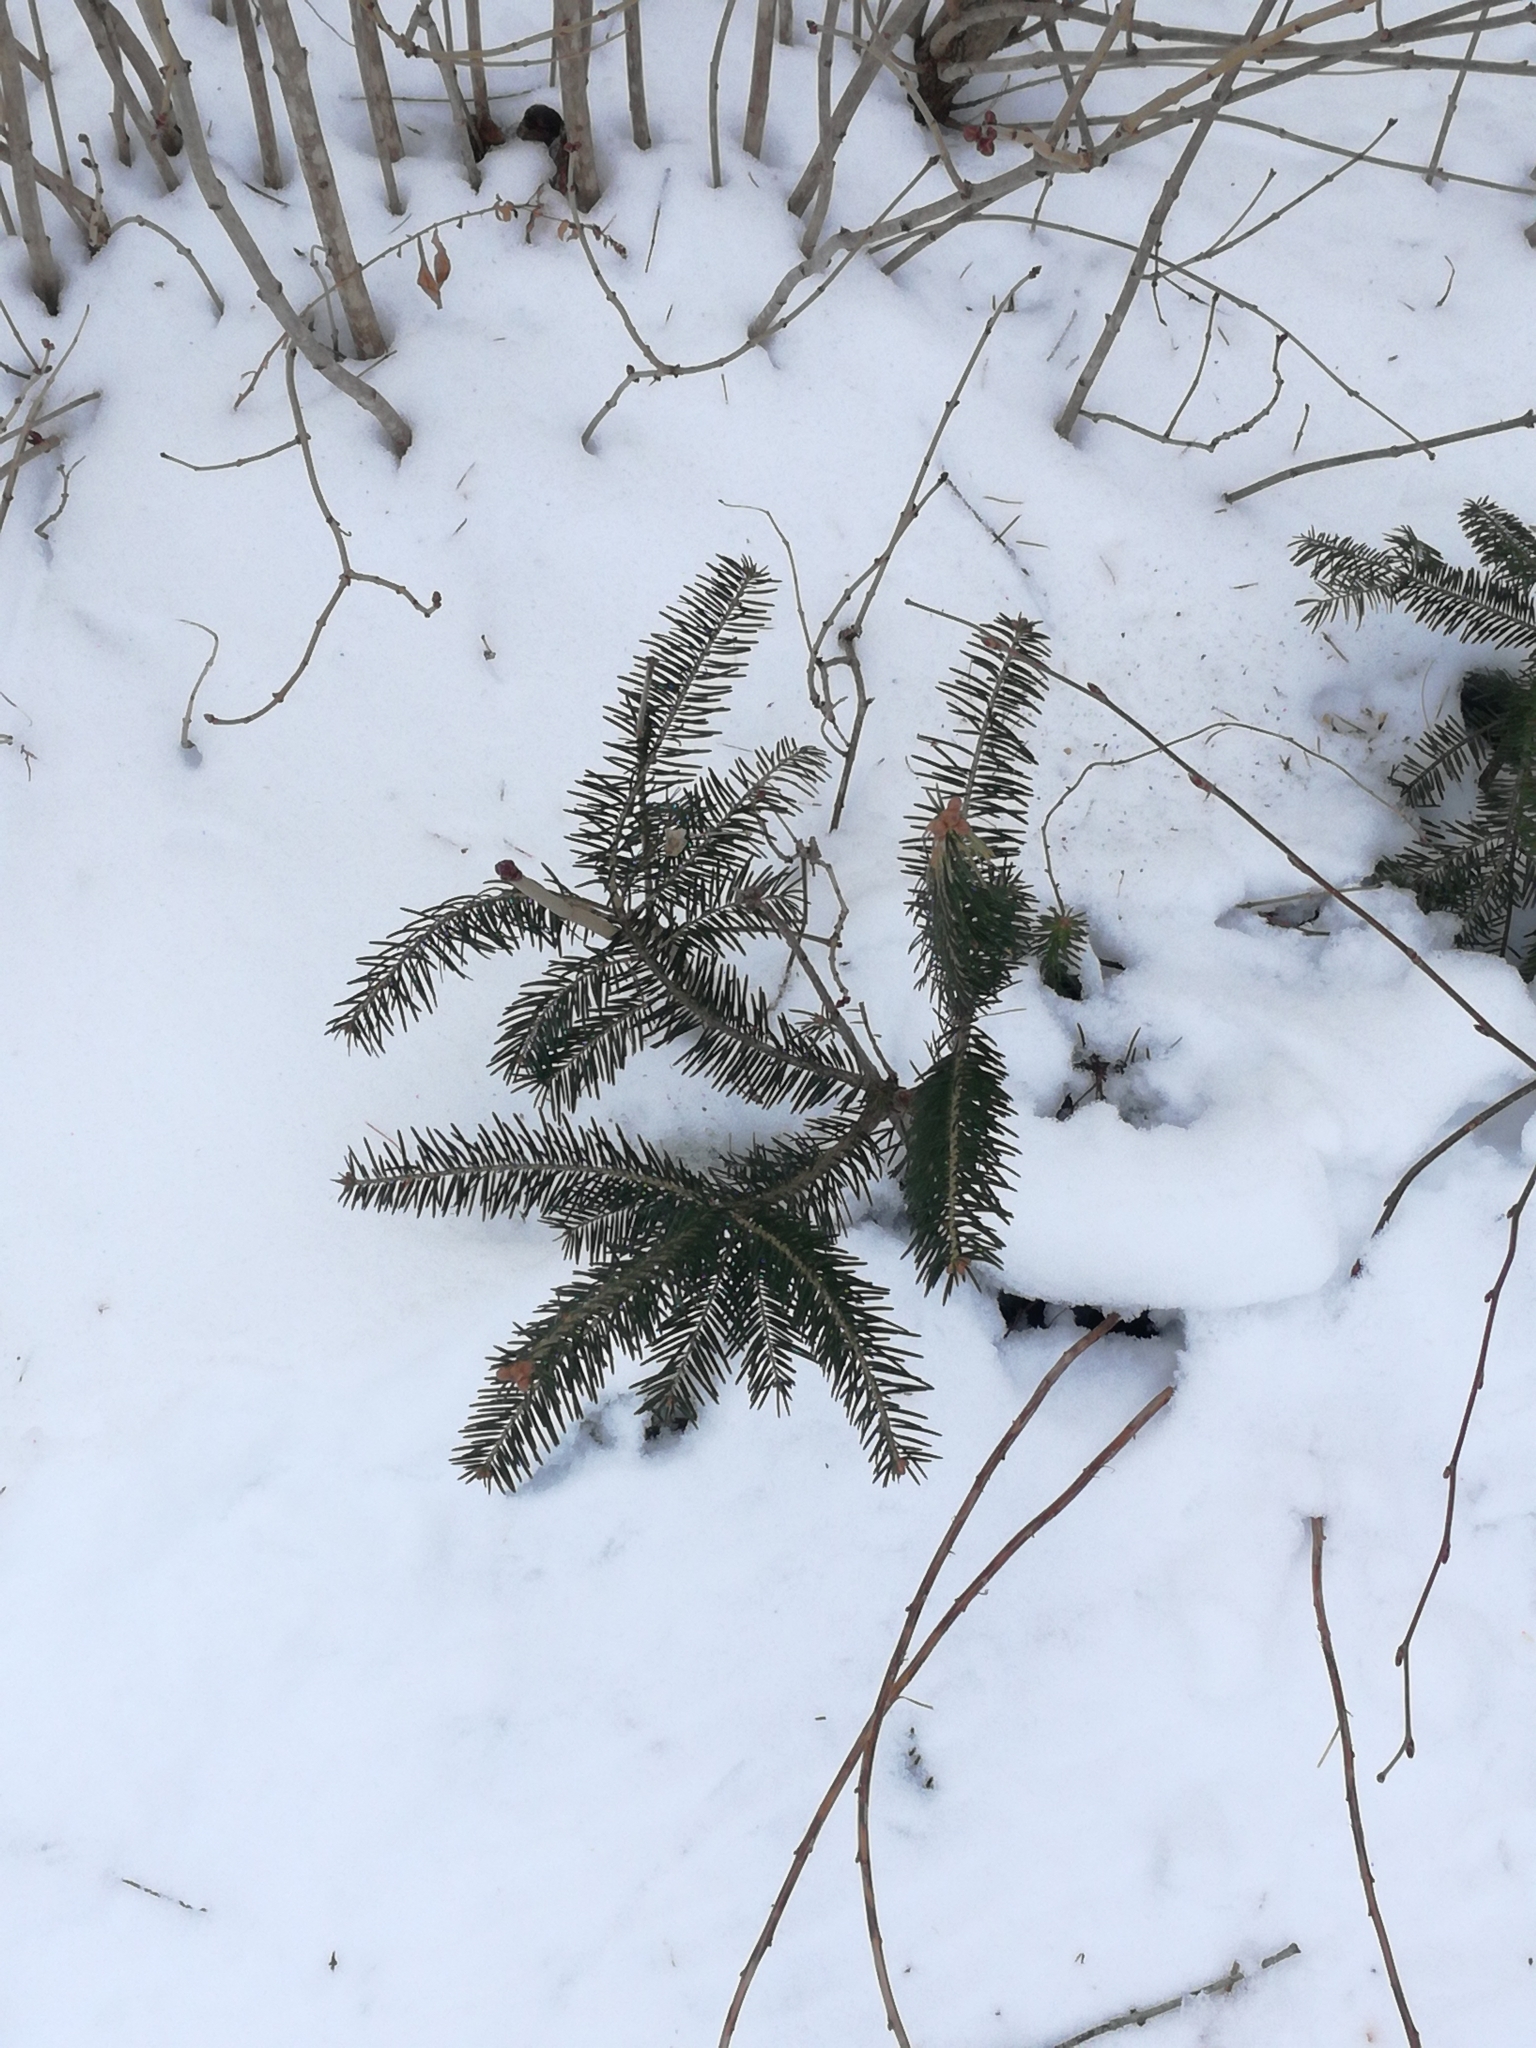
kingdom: Plantae
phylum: Tracheophyta
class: Pinopsida
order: Pinales
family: Pinaceae
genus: Abies
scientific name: Abies balsamea
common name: Balsam fir
